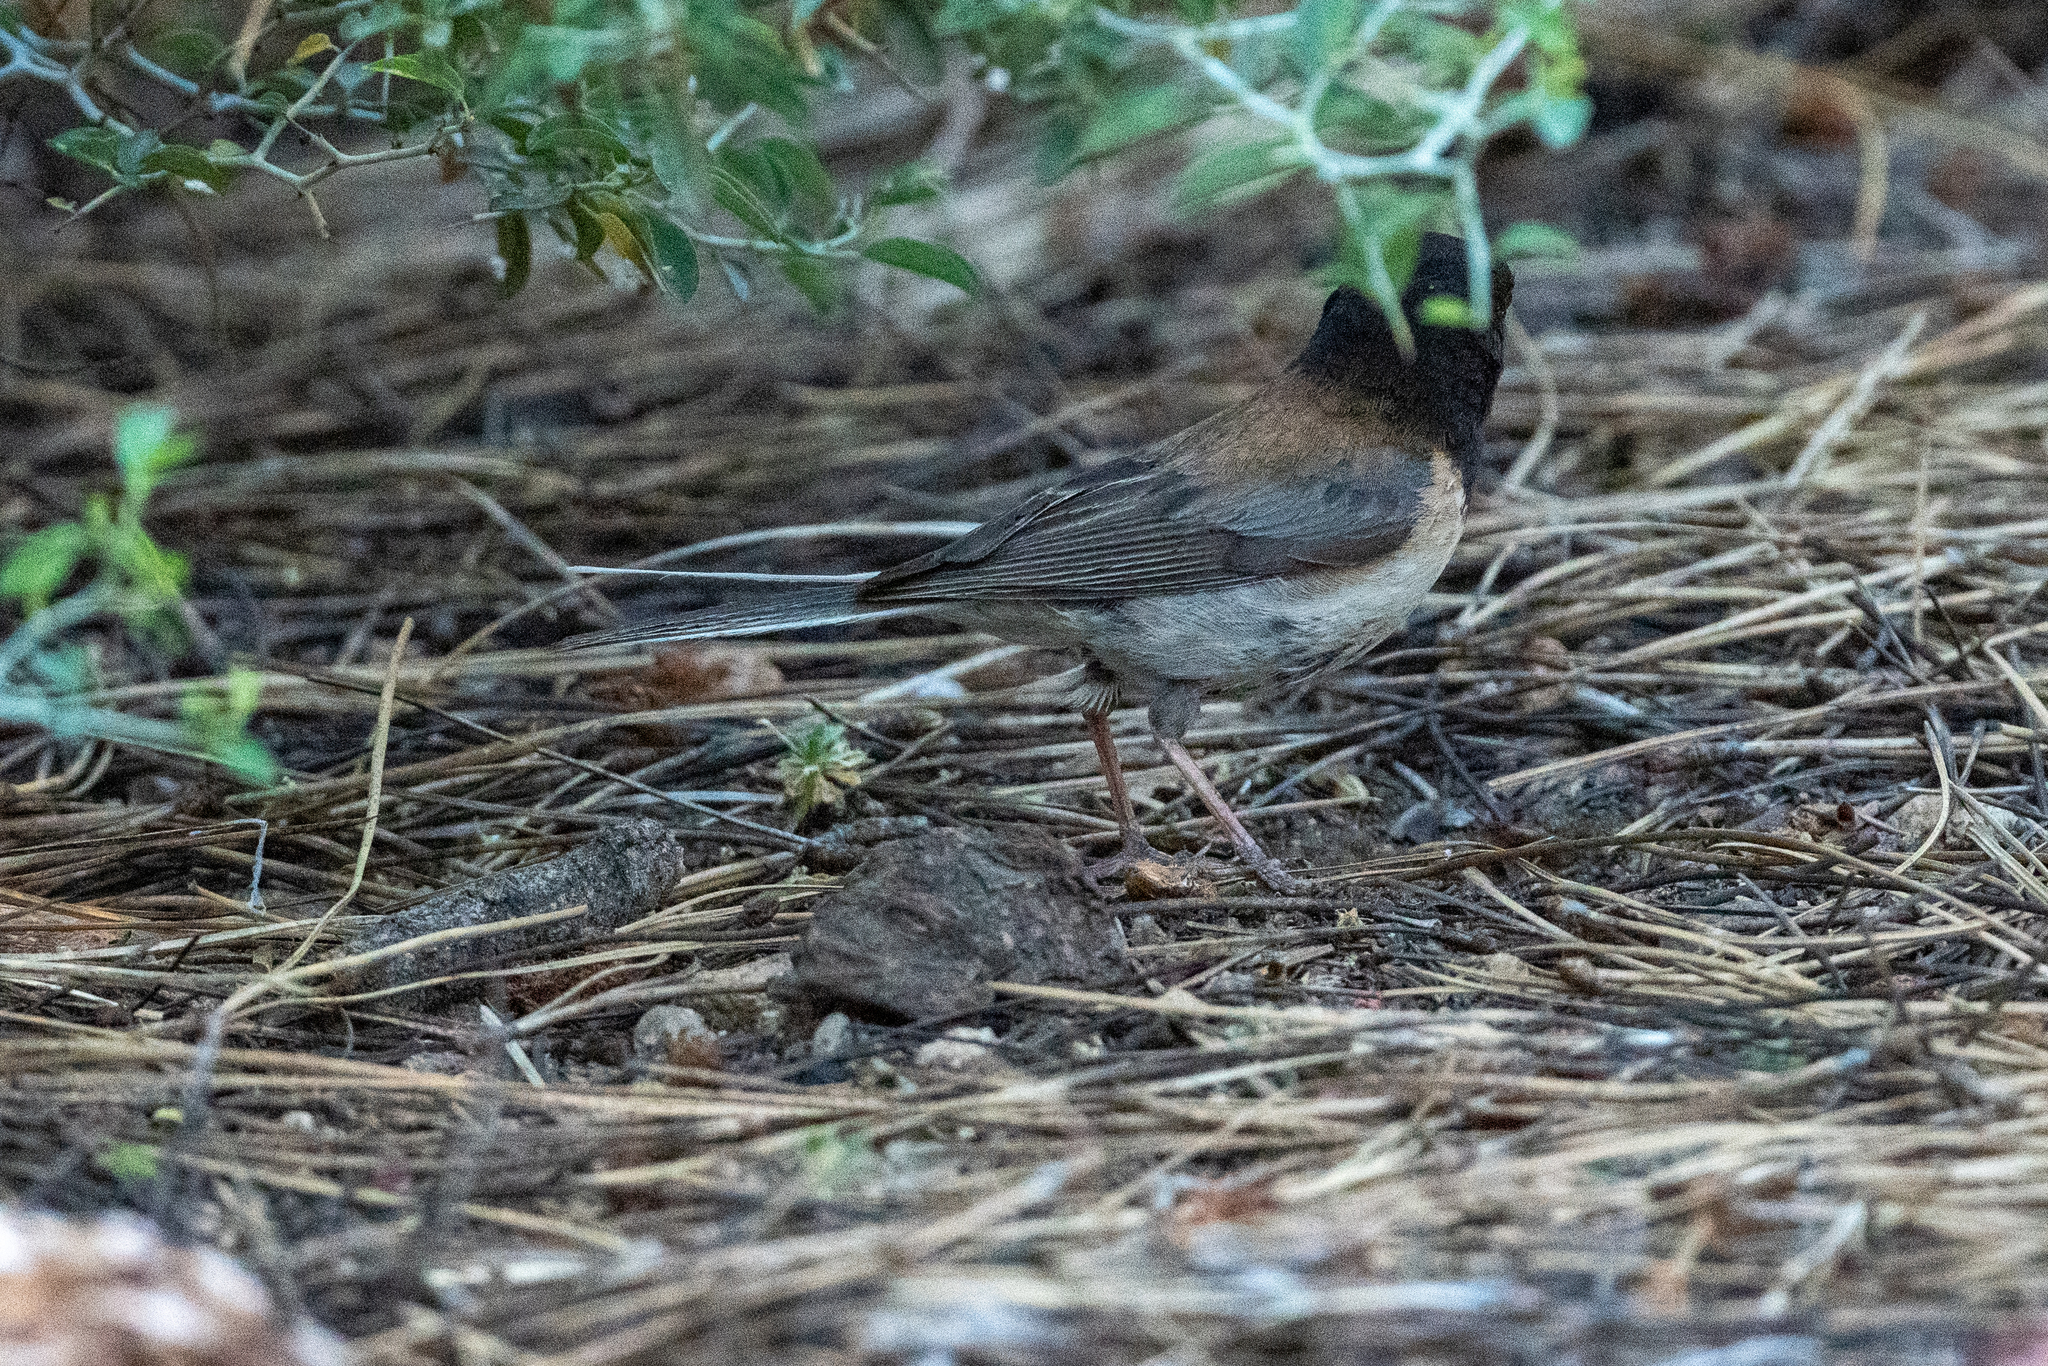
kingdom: Animalia
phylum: Chordata
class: Aves
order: Passeriformes
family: Passerellidae
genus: Junco
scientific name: Junco hyemalis
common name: Dark-eyed junco
